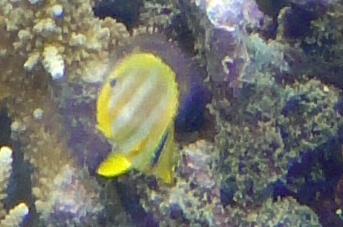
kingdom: Animalia
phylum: Chordata
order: Perciformes
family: Chaetodontidae
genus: Chaetodon
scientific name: Chaetodon rainfordi
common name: Rainford's butterflyfish
